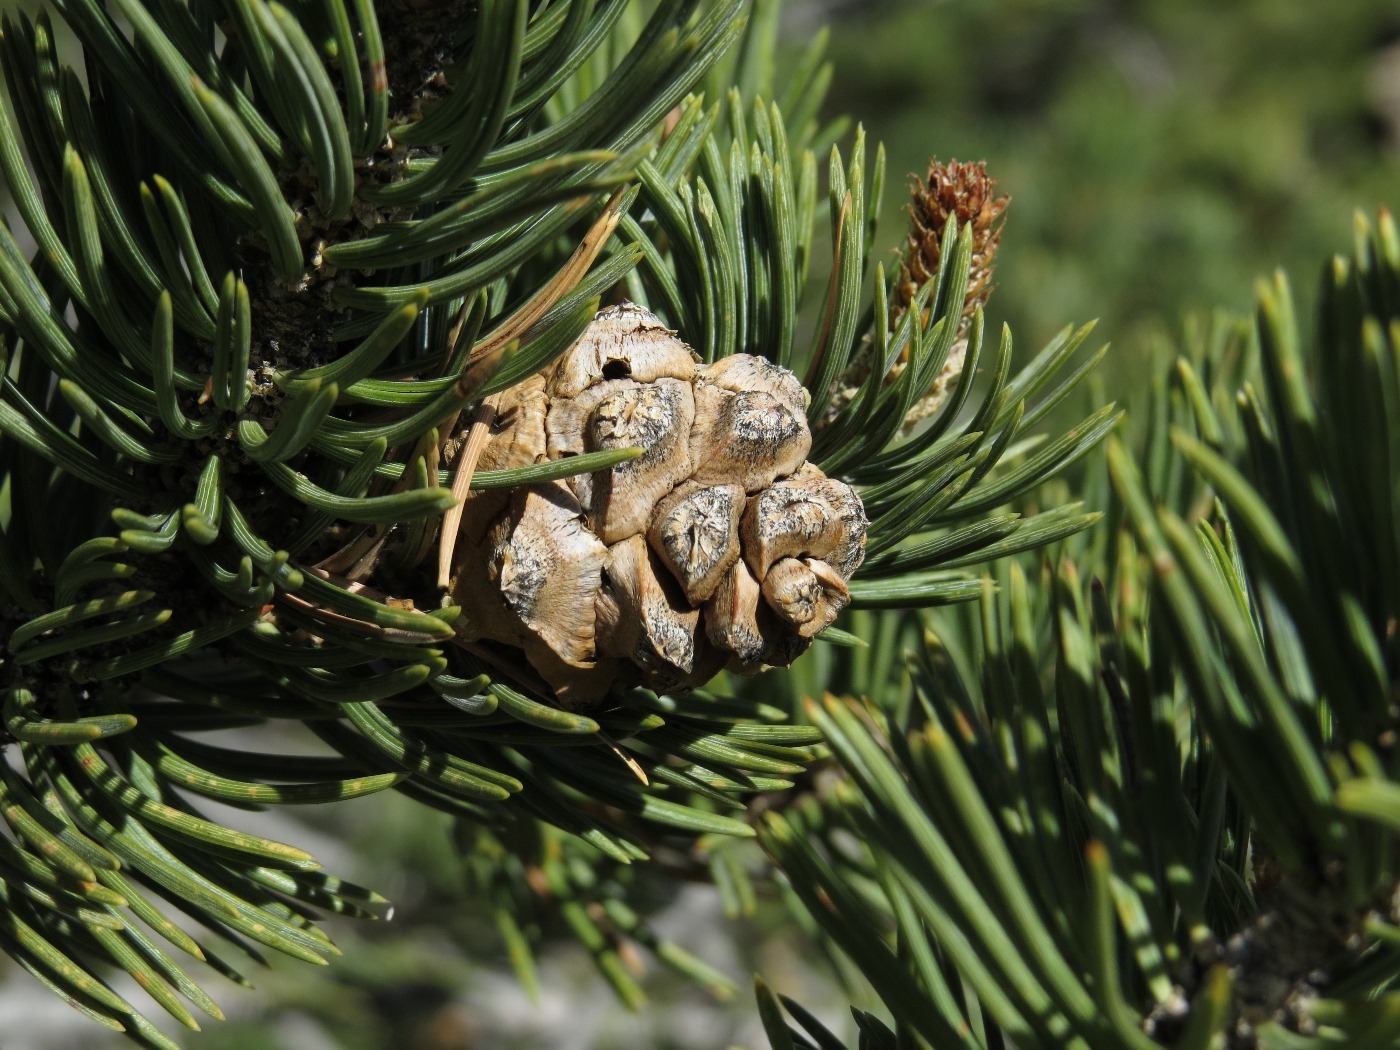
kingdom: Plantae
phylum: Tracheophyta
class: Pinopsida
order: Pinales
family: Pinaceae
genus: Pinus
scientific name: Pinus edulis
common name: Colorado pinyon
